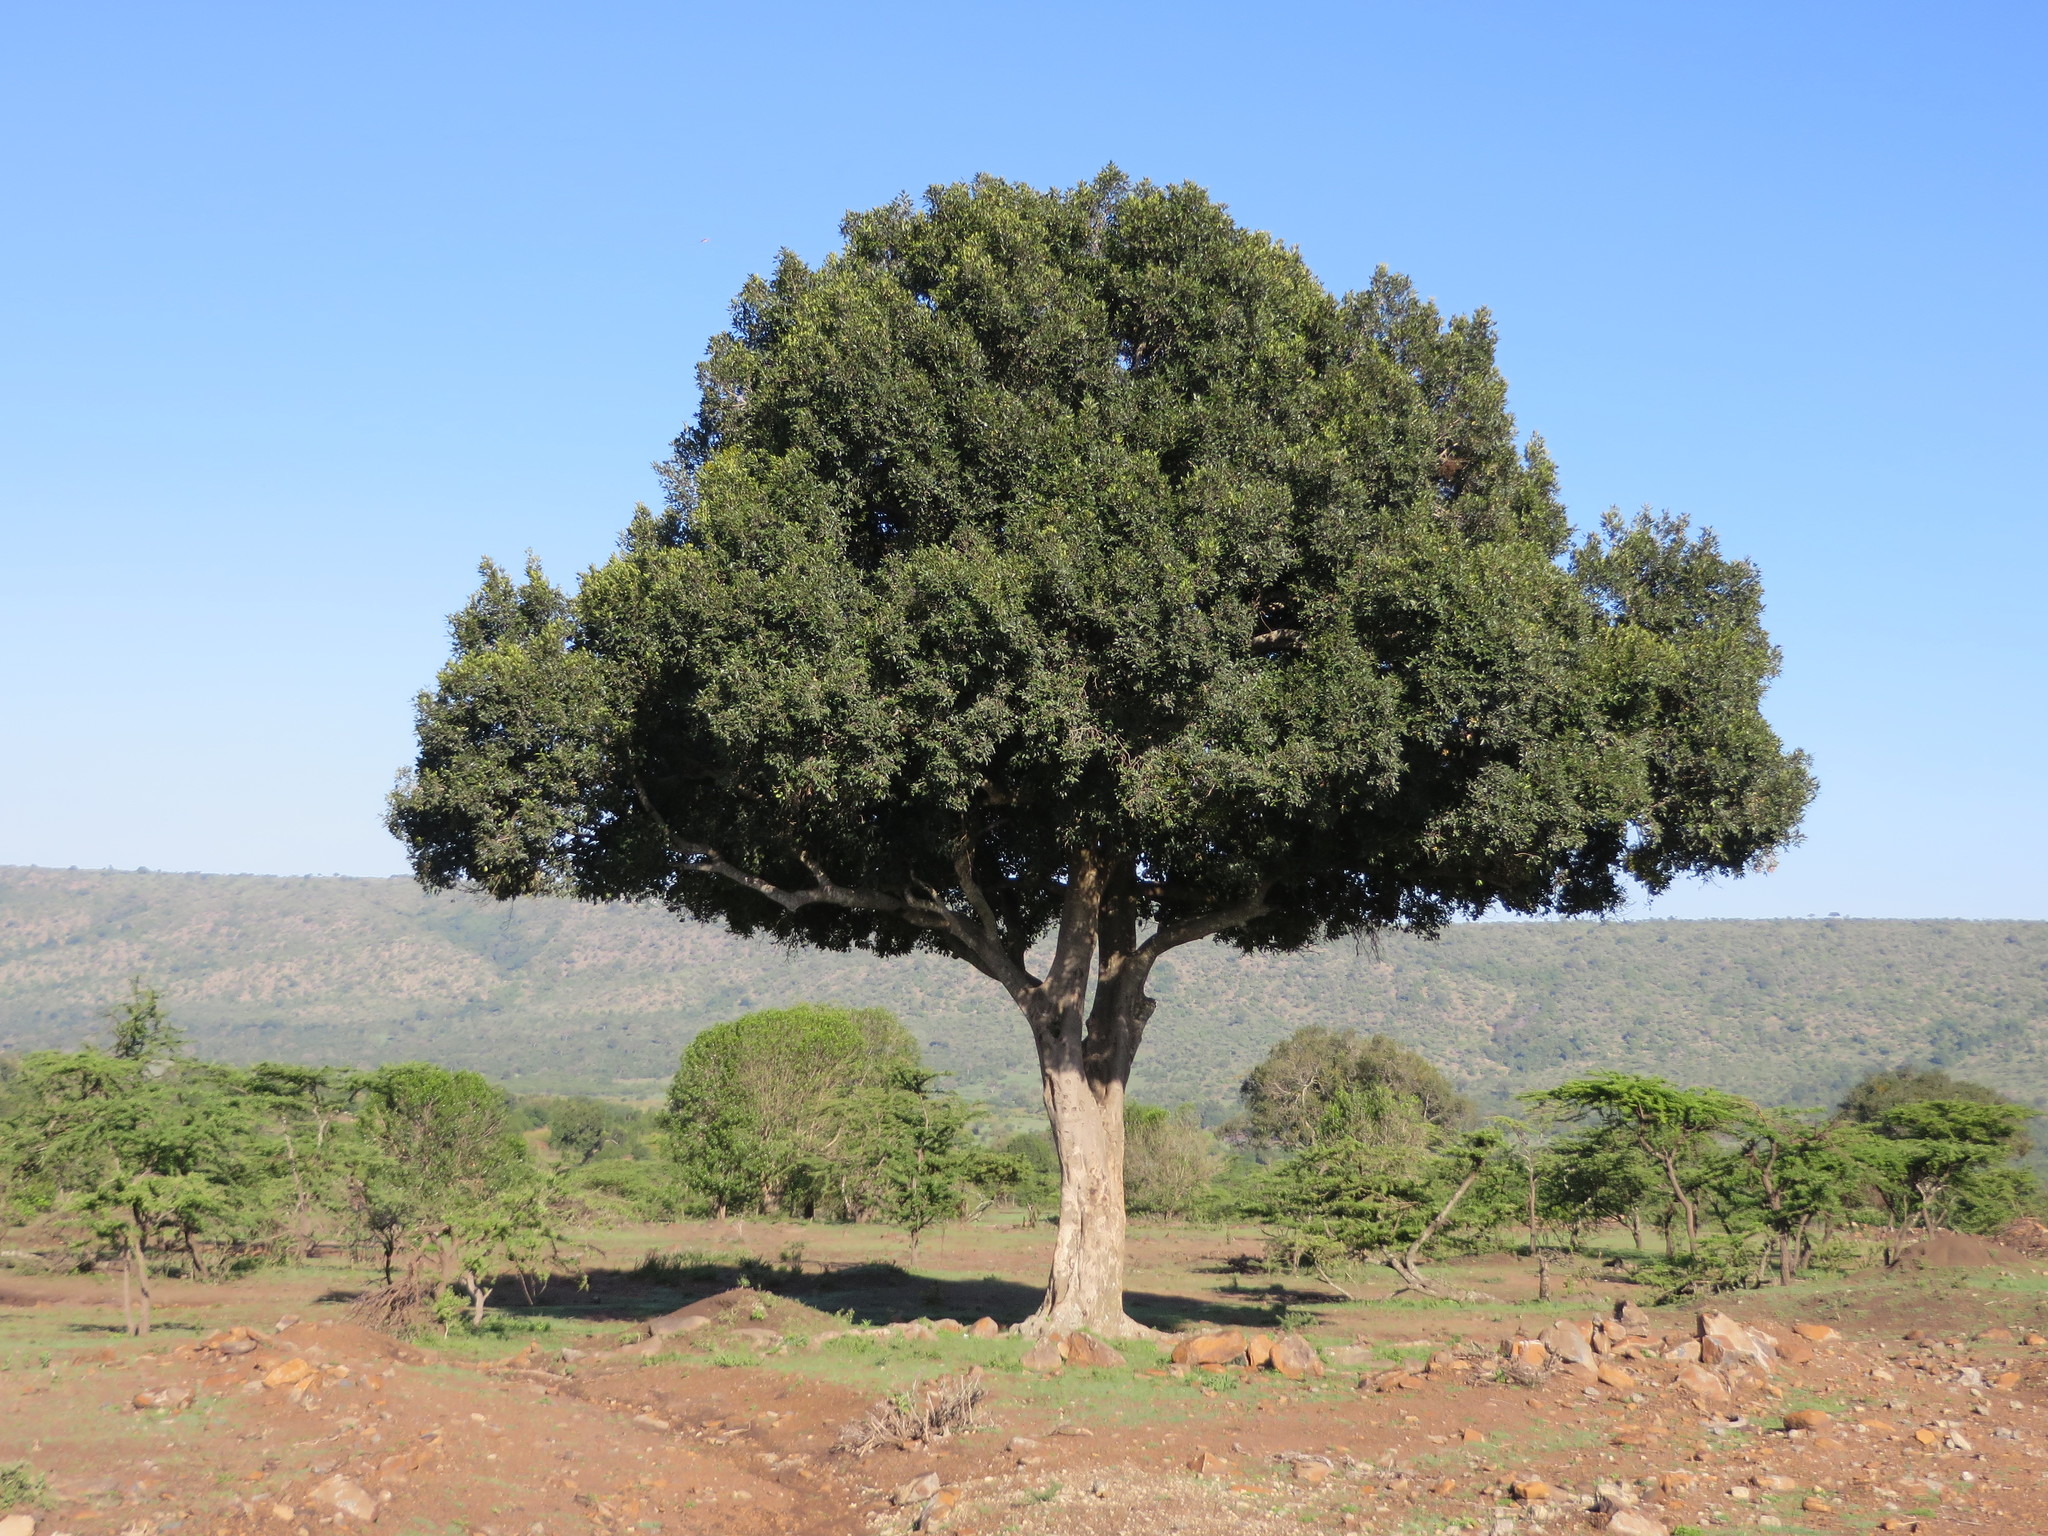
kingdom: Plantae
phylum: Tracheophyta
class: Magnoliopsida
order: Celastrales
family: Celastraceae
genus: Elaeodendron
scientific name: Elaeodendron buchananii
